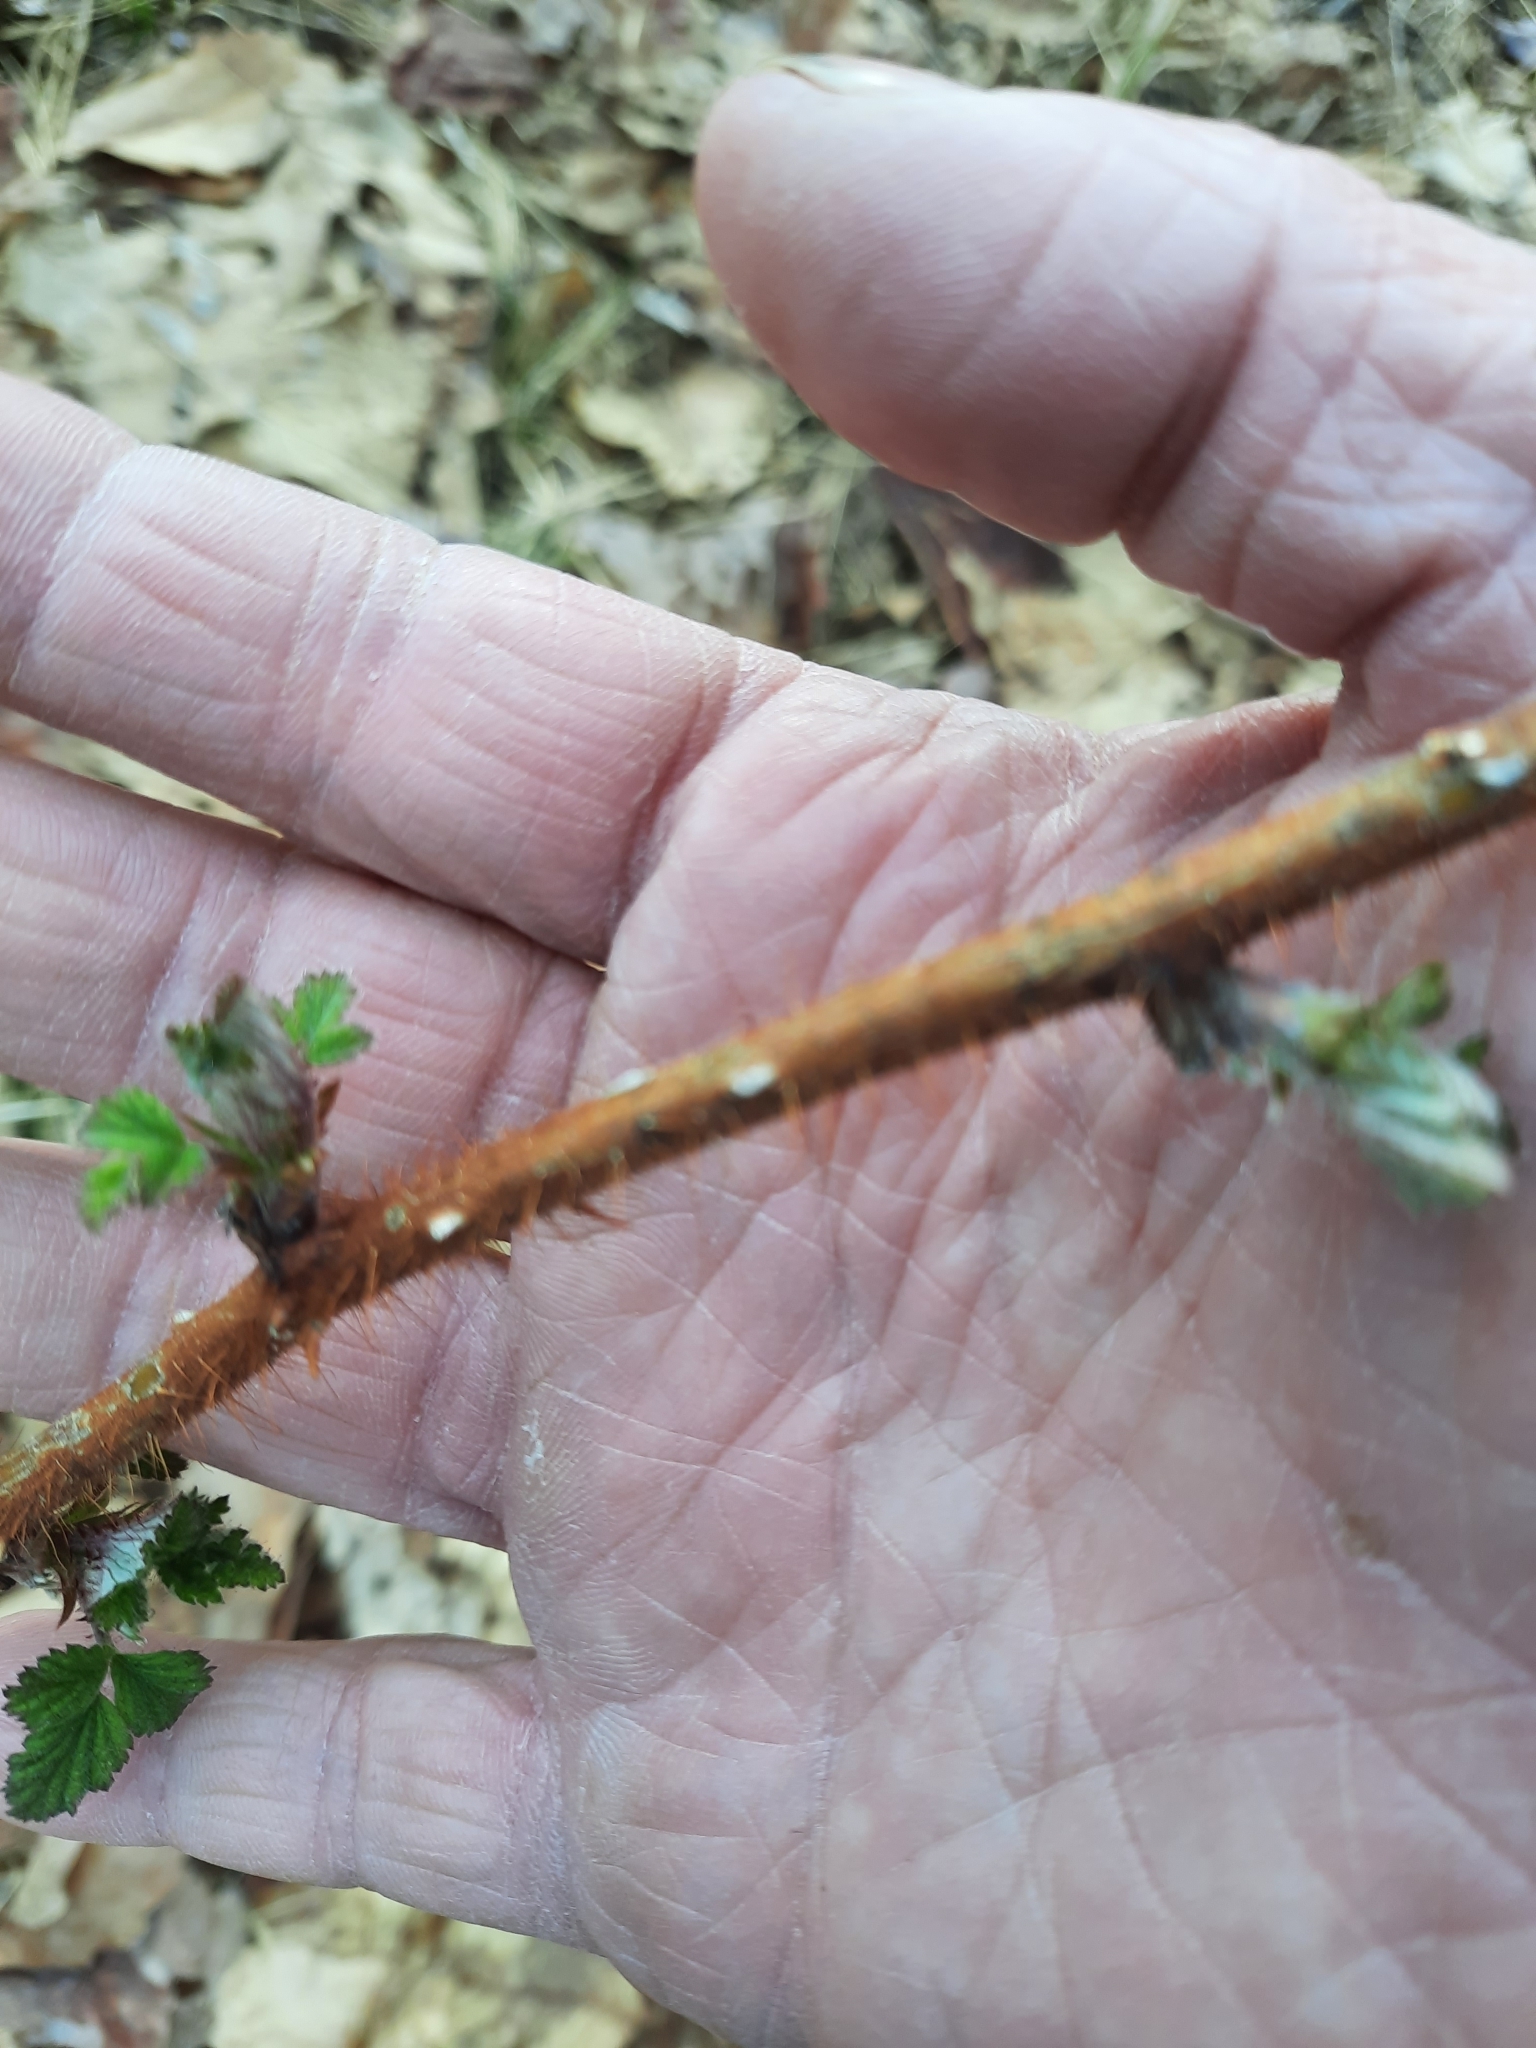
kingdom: Plantae
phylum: Tracheophyta
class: Magnoliopsida
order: Rosales
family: Rosaceae
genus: Rubus
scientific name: Rubus phoenicolasius
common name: Japanese wineberry
